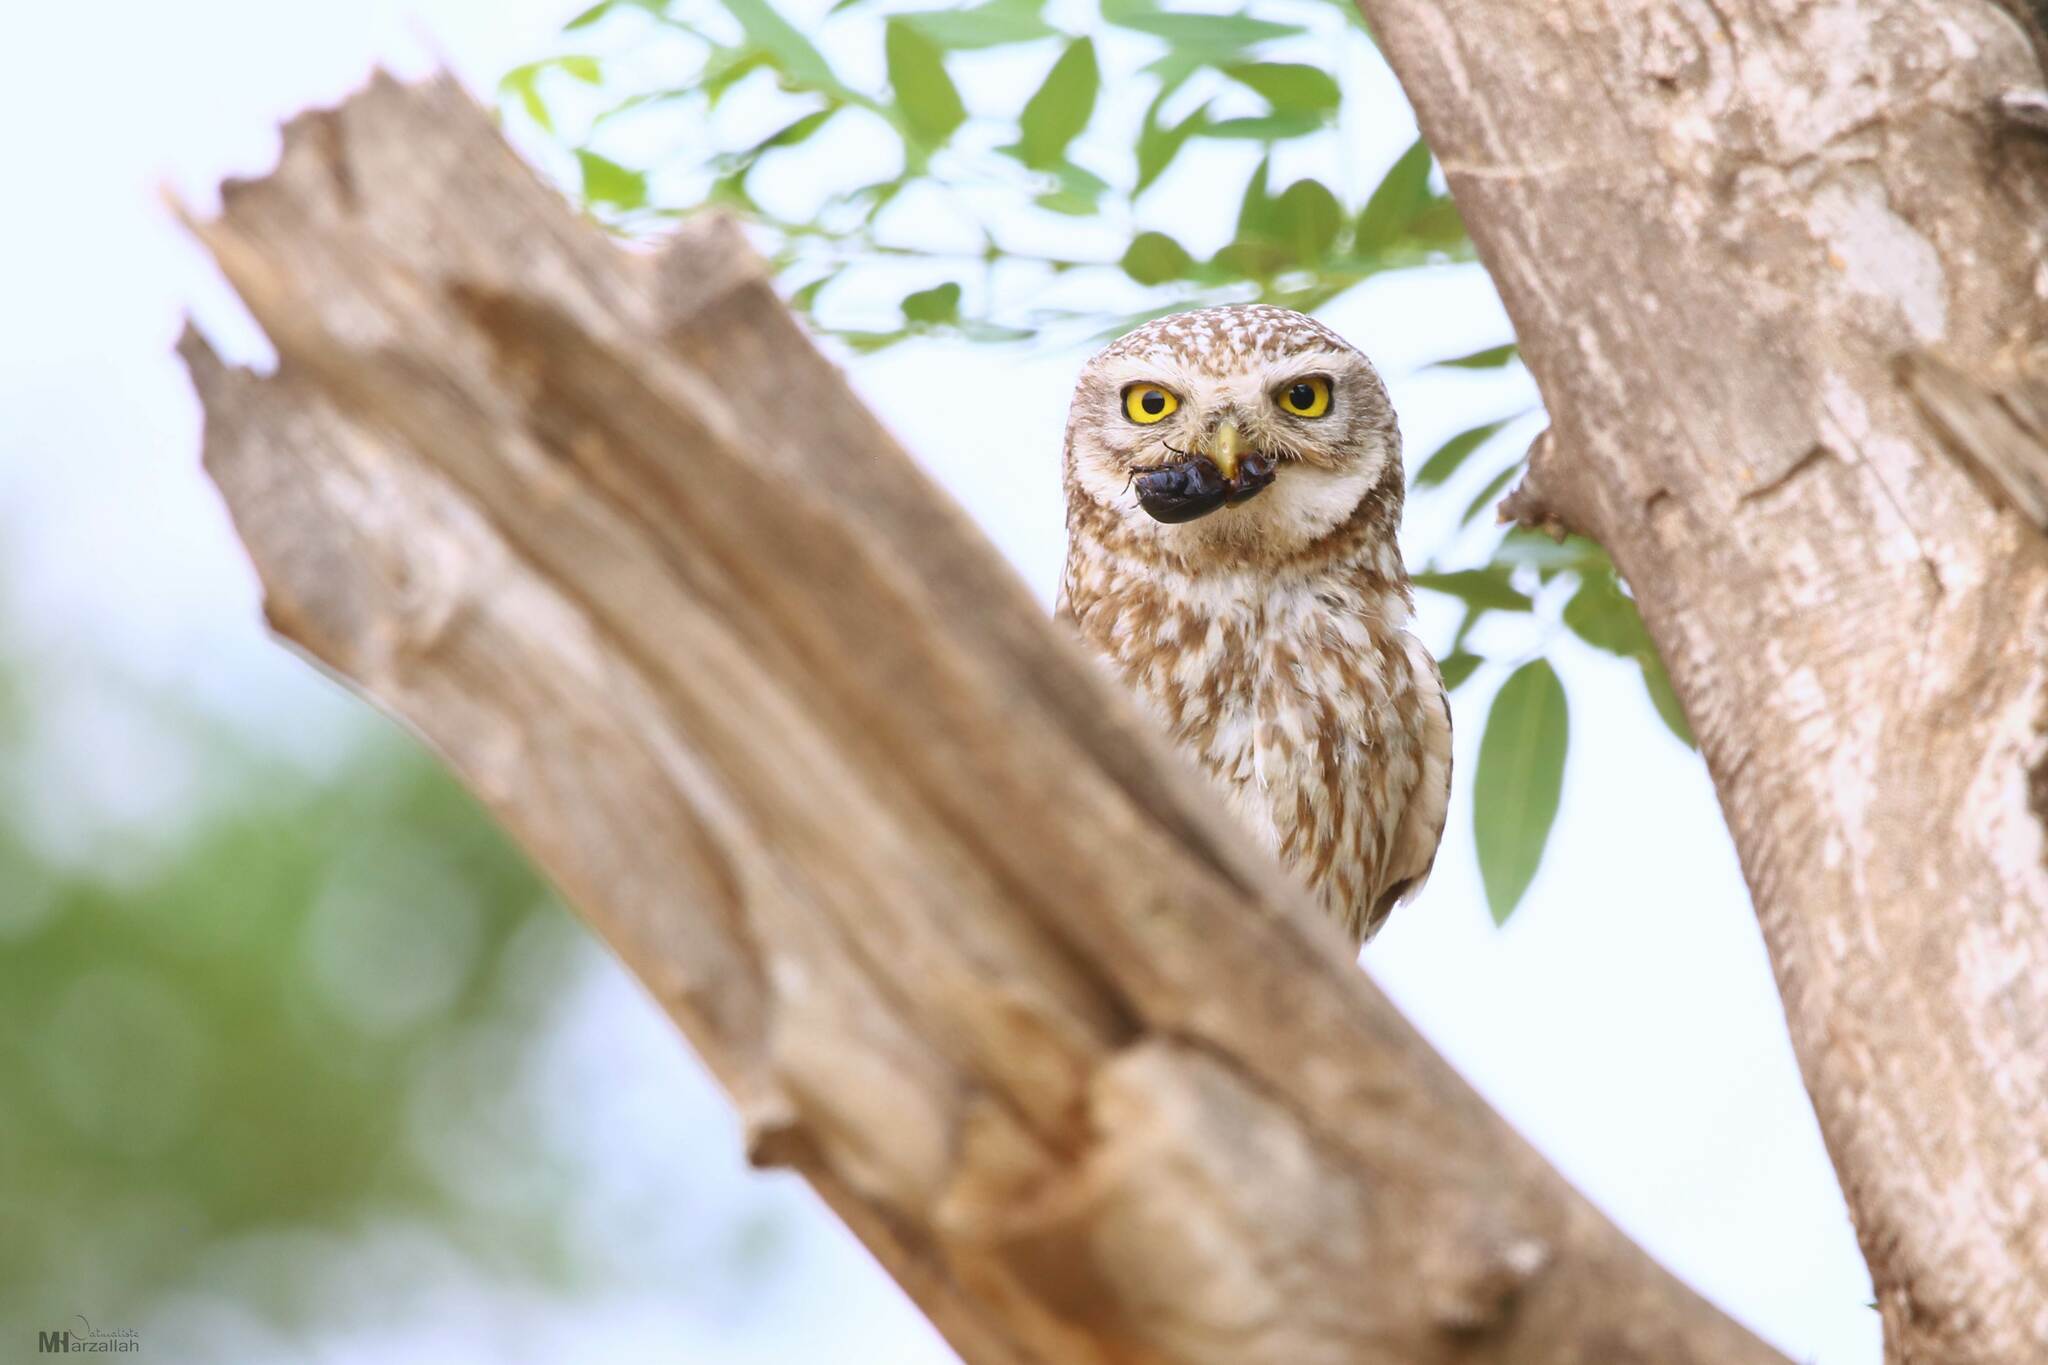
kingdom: Animalia
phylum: Chordata
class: Aves
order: Strigiformes
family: Strigidae
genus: Athene
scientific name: Athene noctua
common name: Little owl
